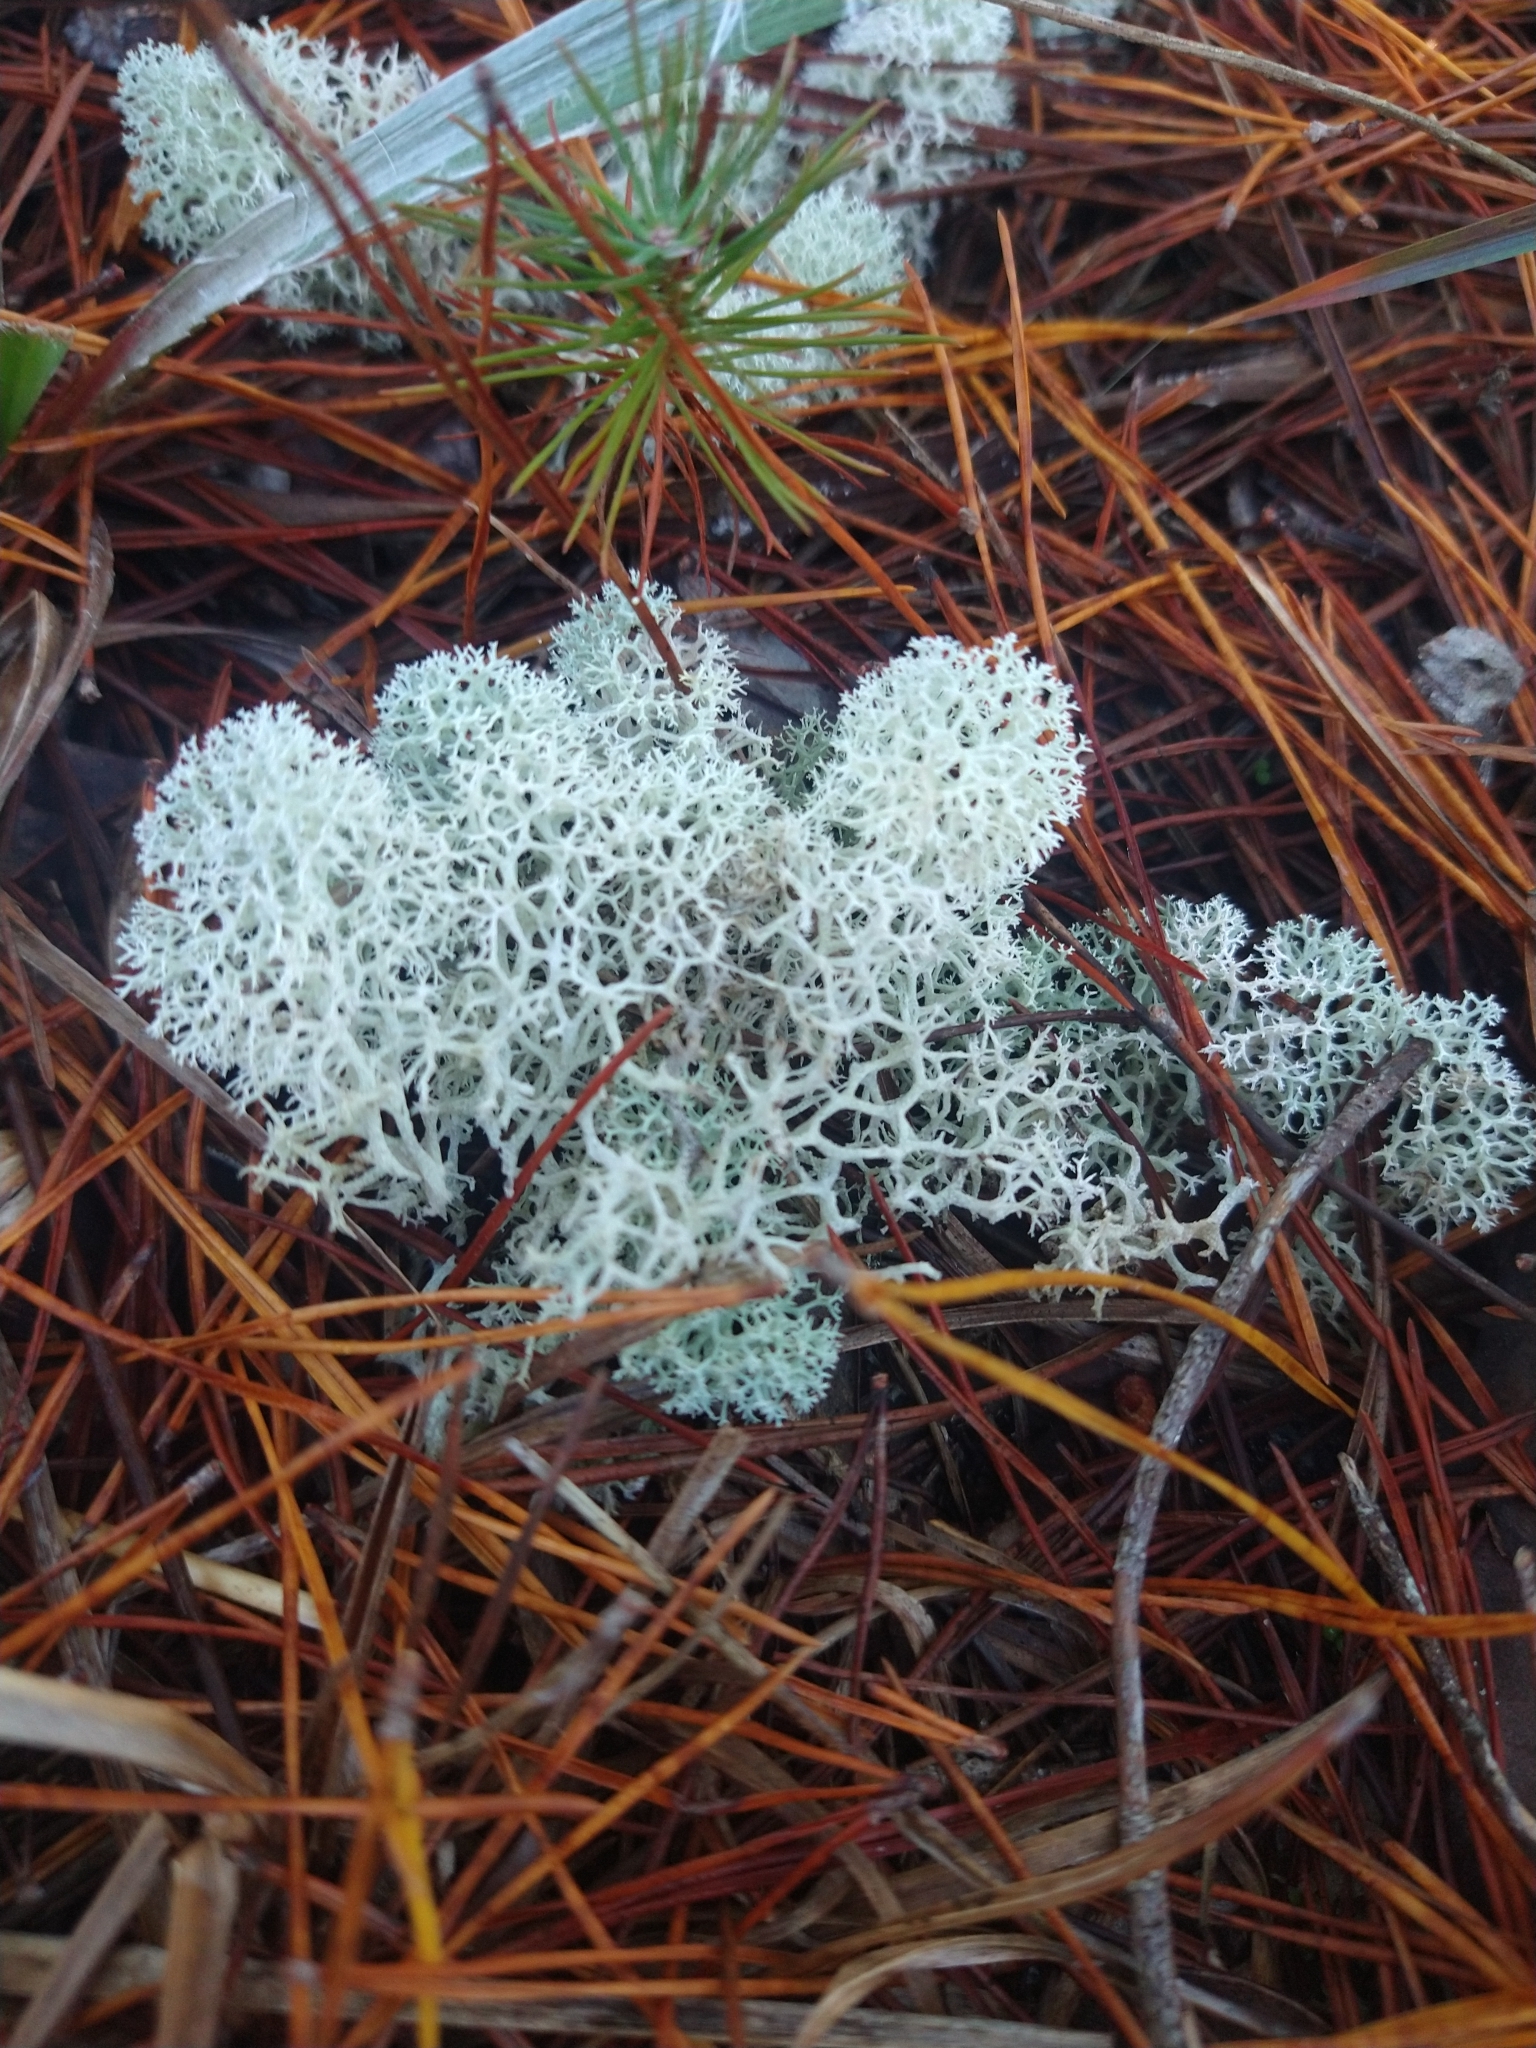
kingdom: Fungi
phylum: Ascomycota
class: Lecanoromycetes
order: Lecanorales
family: Cladoniaceae
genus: Cladonia
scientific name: Cladonia evansii
